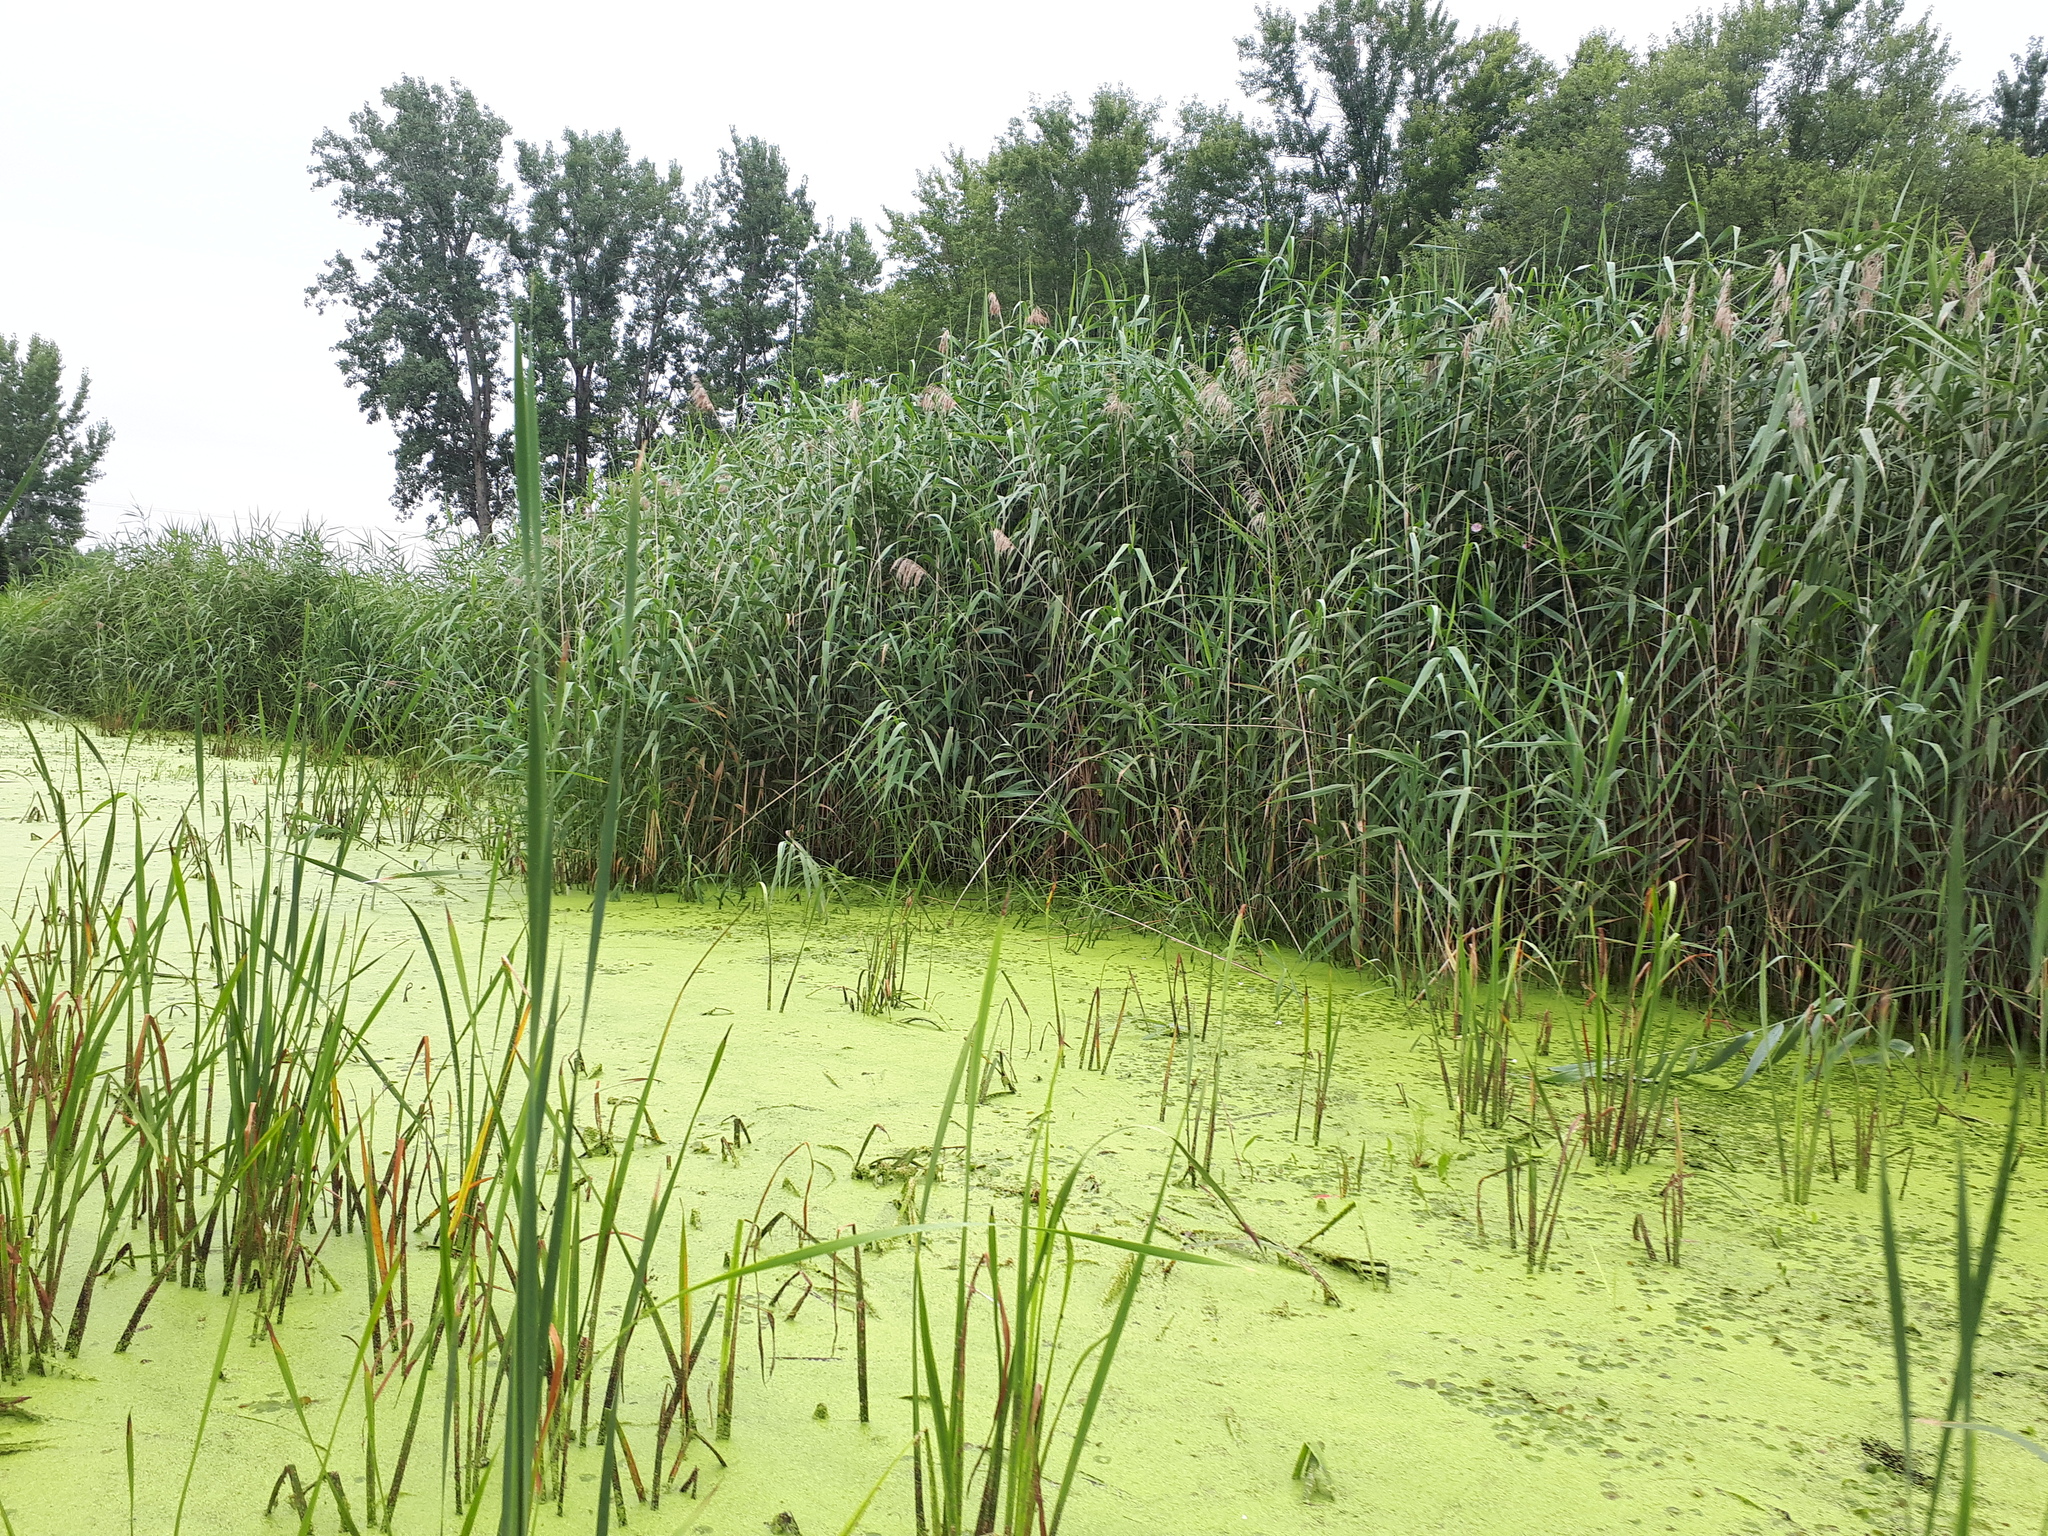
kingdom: Plantae
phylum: Tracheophyta
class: Liliopsida
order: Poales
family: Poaceae
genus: Phragmites
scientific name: Phragmites australis
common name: Common reed
